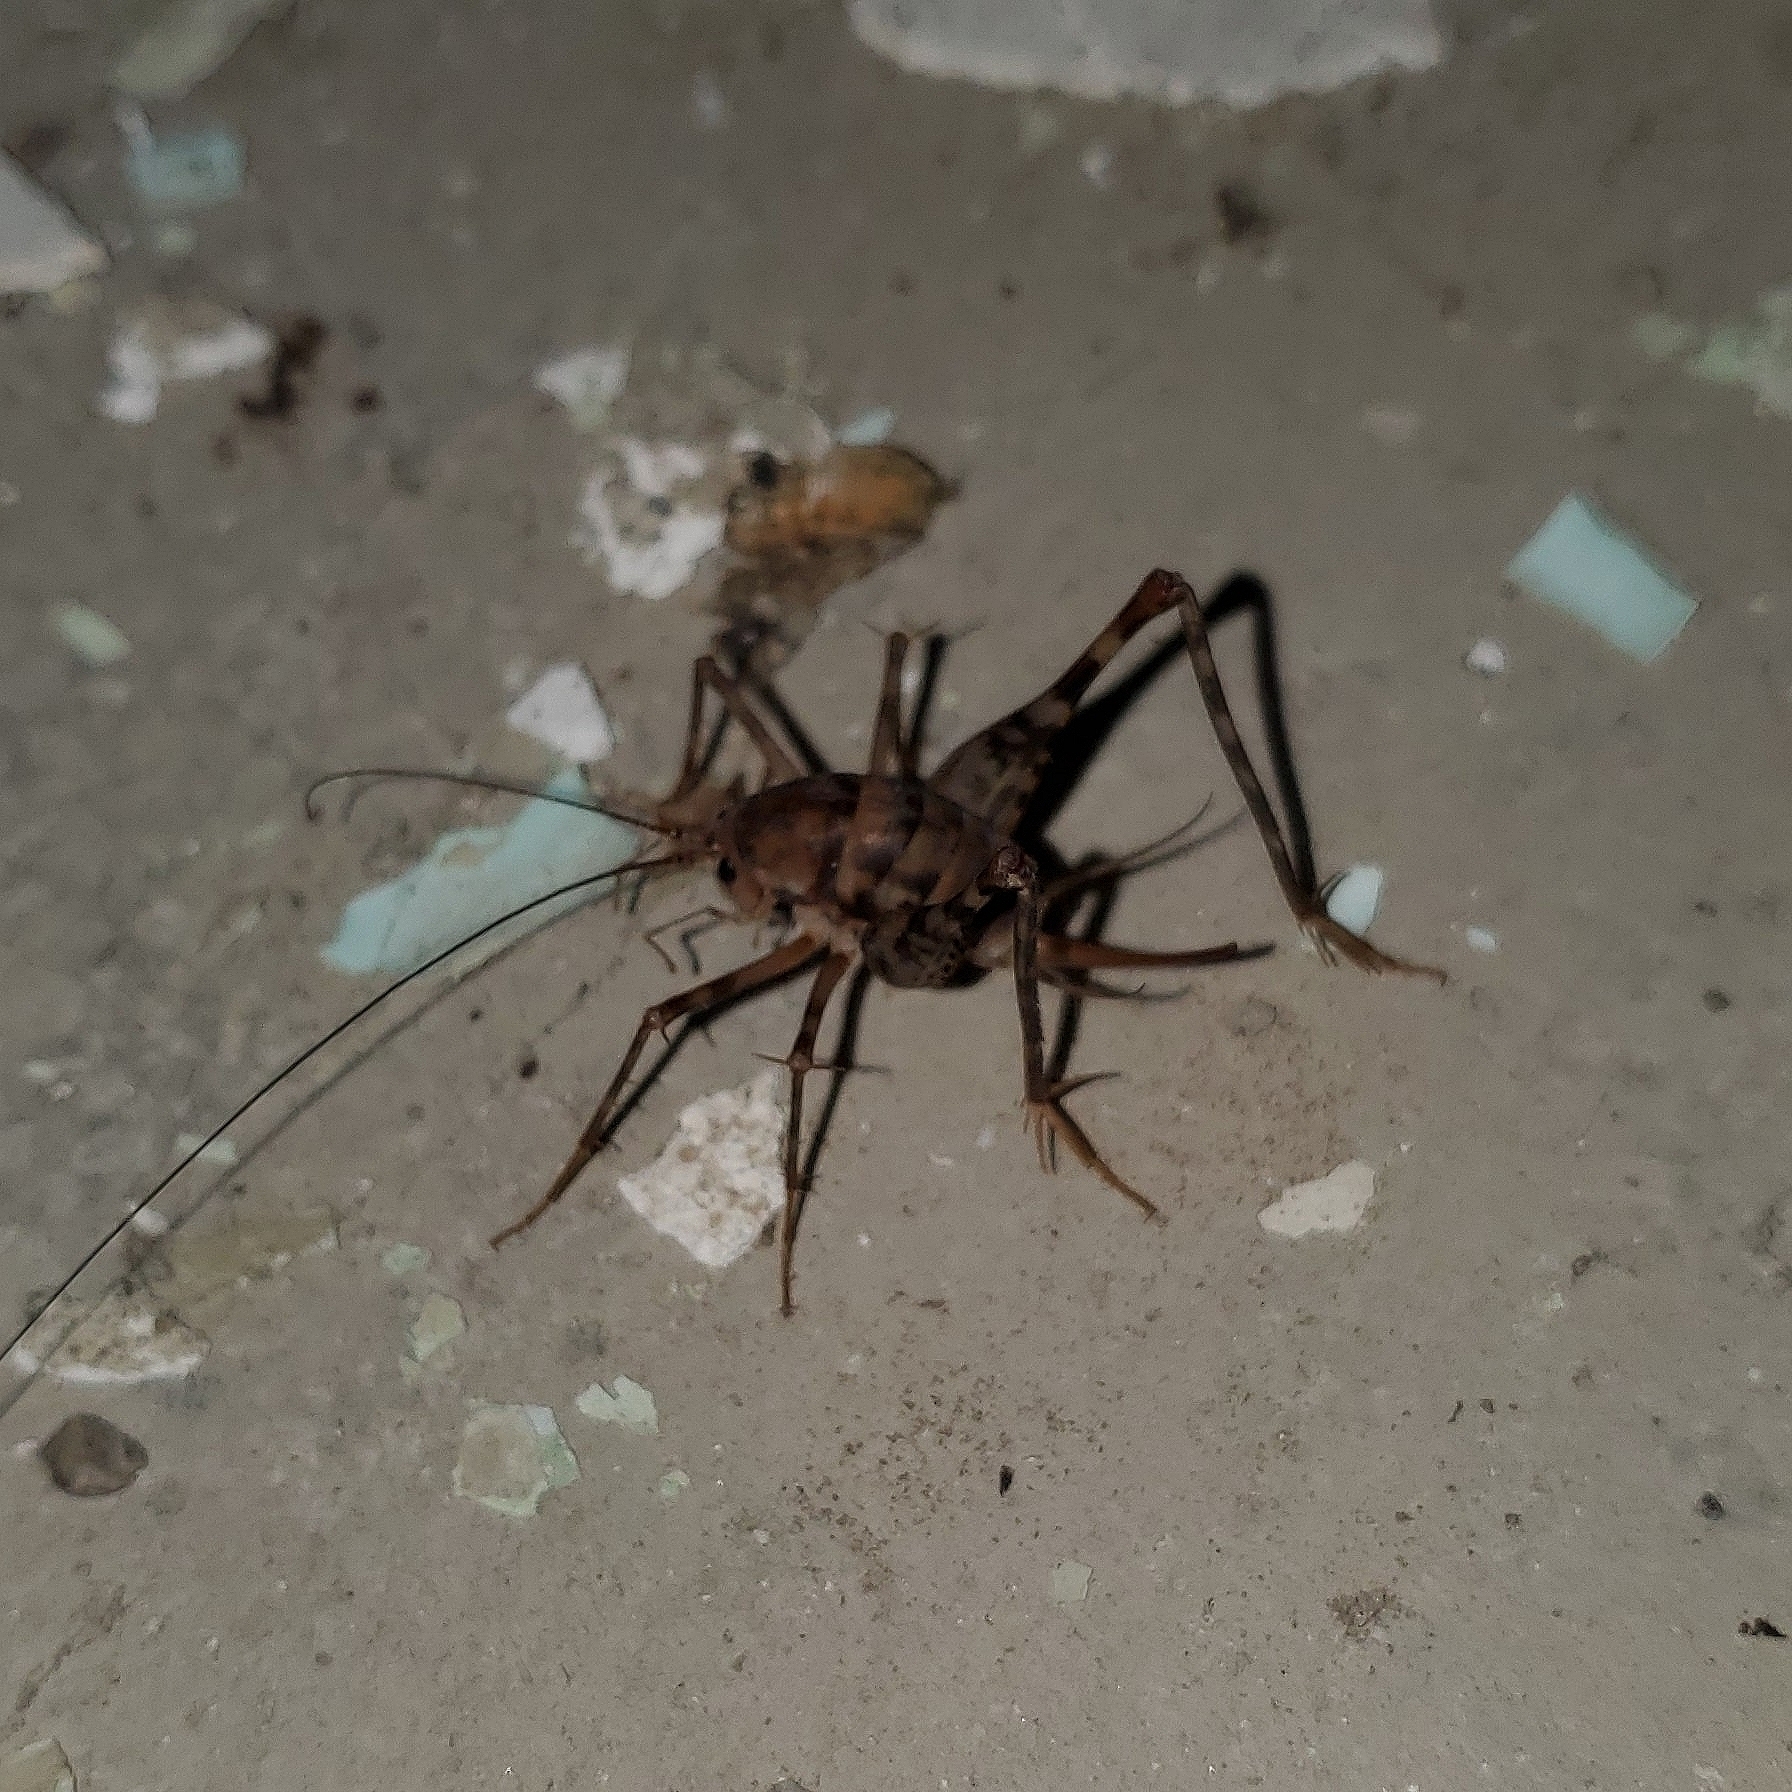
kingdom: Animalia
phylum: Arthropoda
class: Insecta
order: Orthoptera
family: Rhaphidophoridae
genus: Tachycines
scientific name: Tachycines asynamorus
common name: Greenhouse camel cricket
